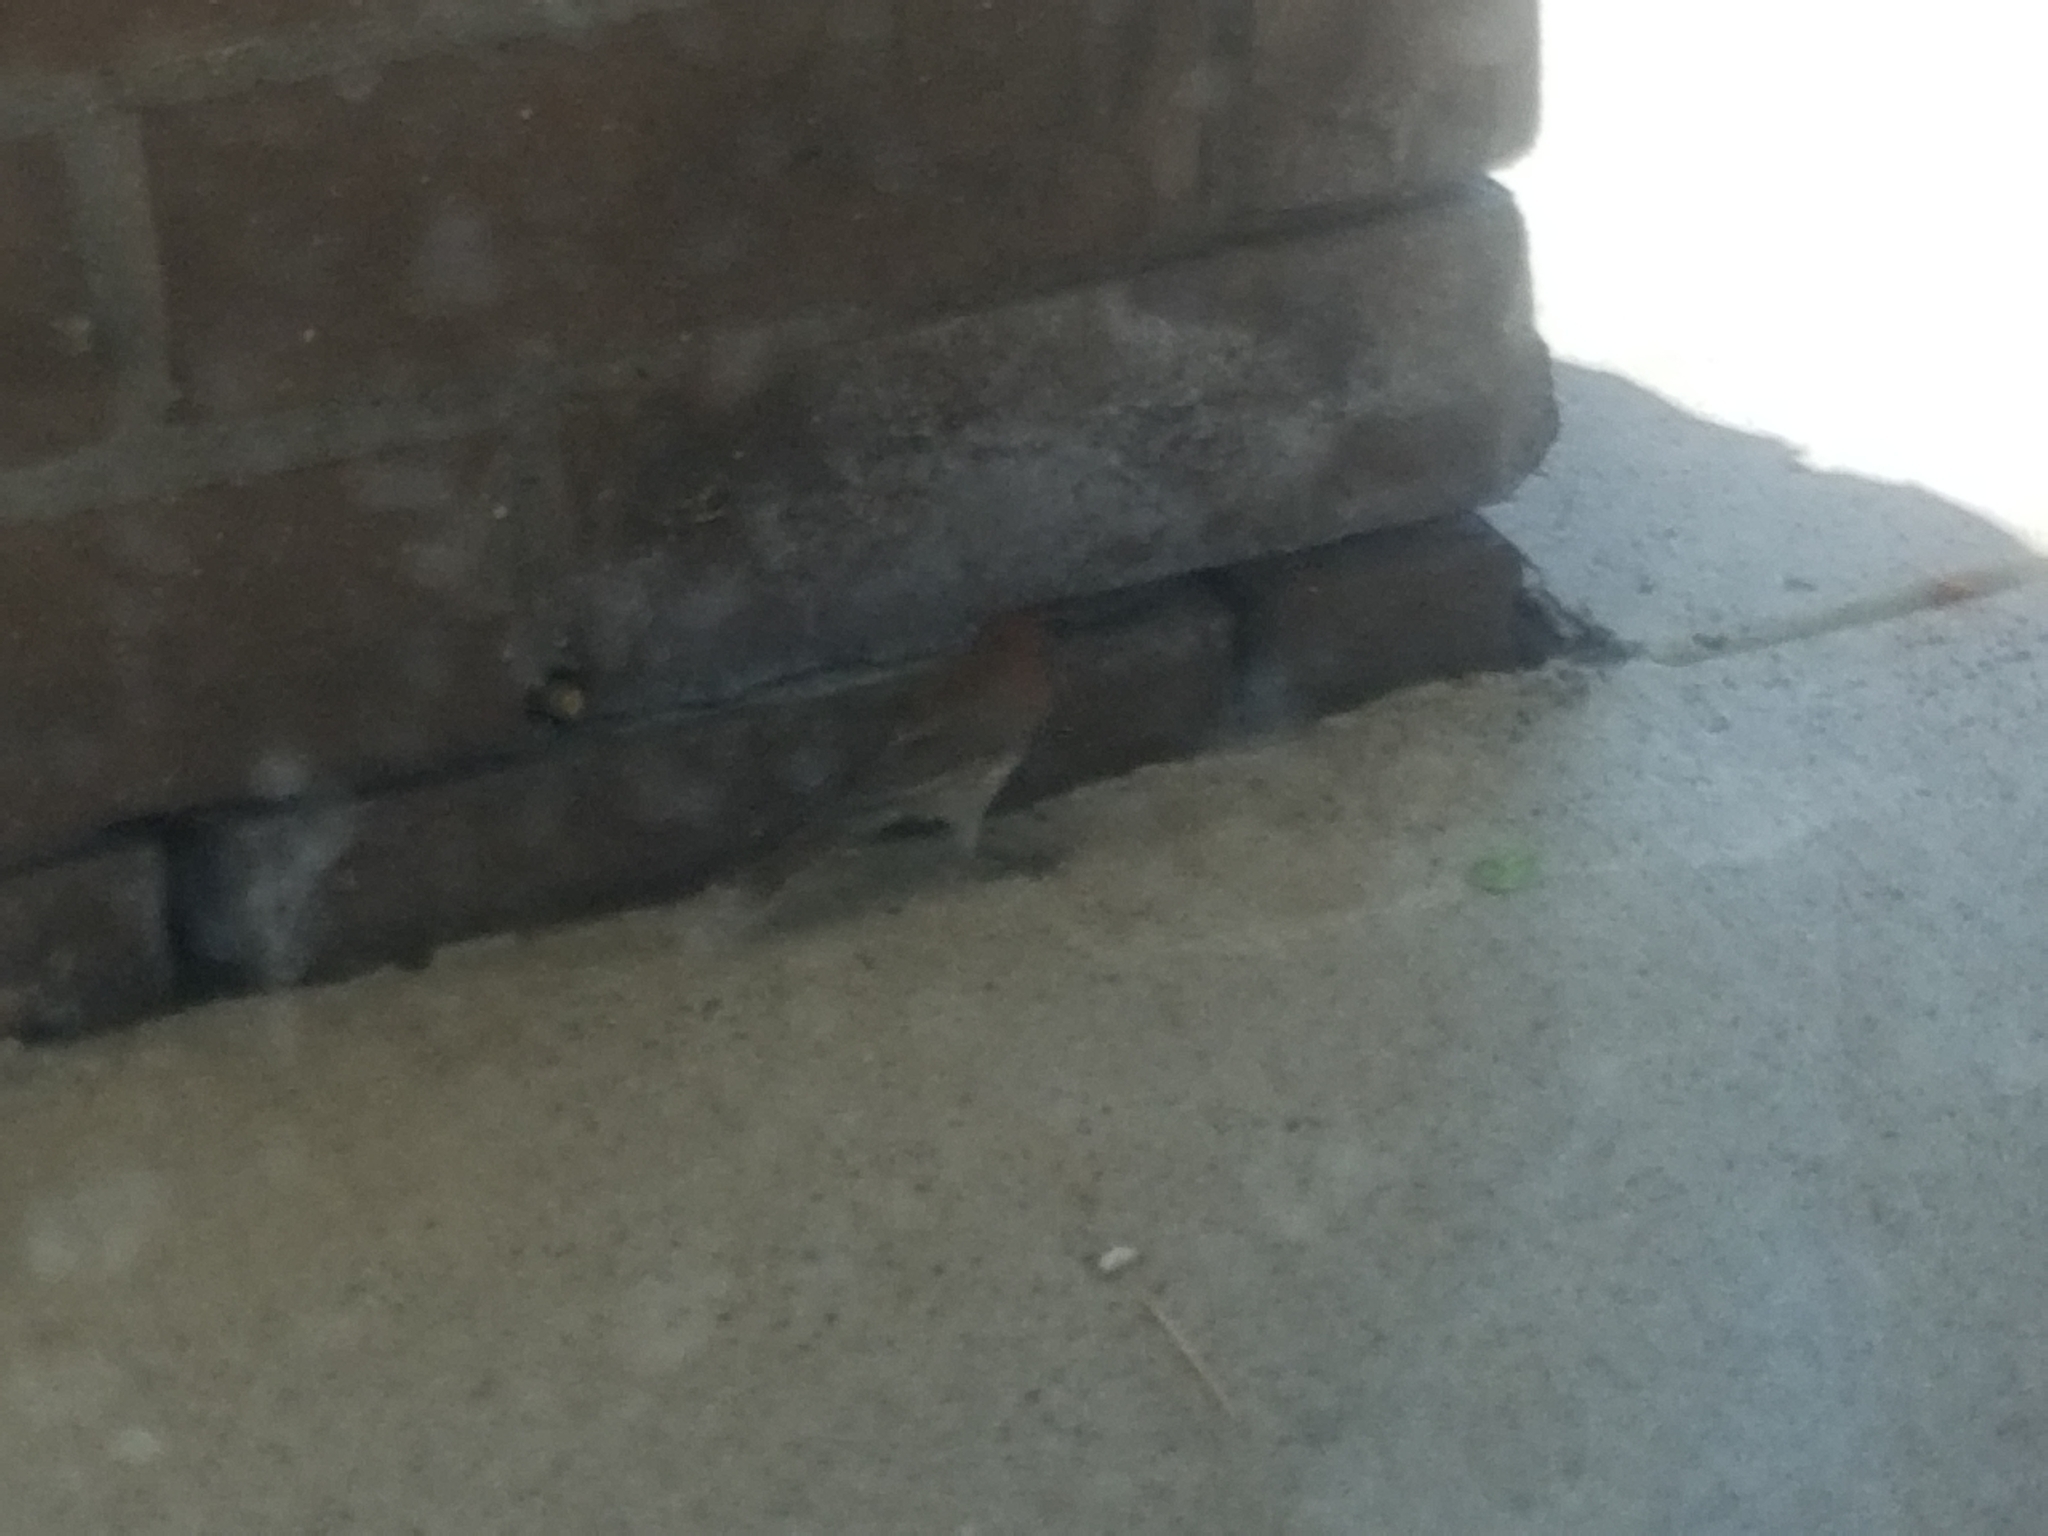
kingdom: Animalia
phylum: Chordata
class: Aves
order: Passeriformes
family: Fringillidae
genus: Haemorhous
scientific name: Haemorhous mexicanus
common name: House finch
